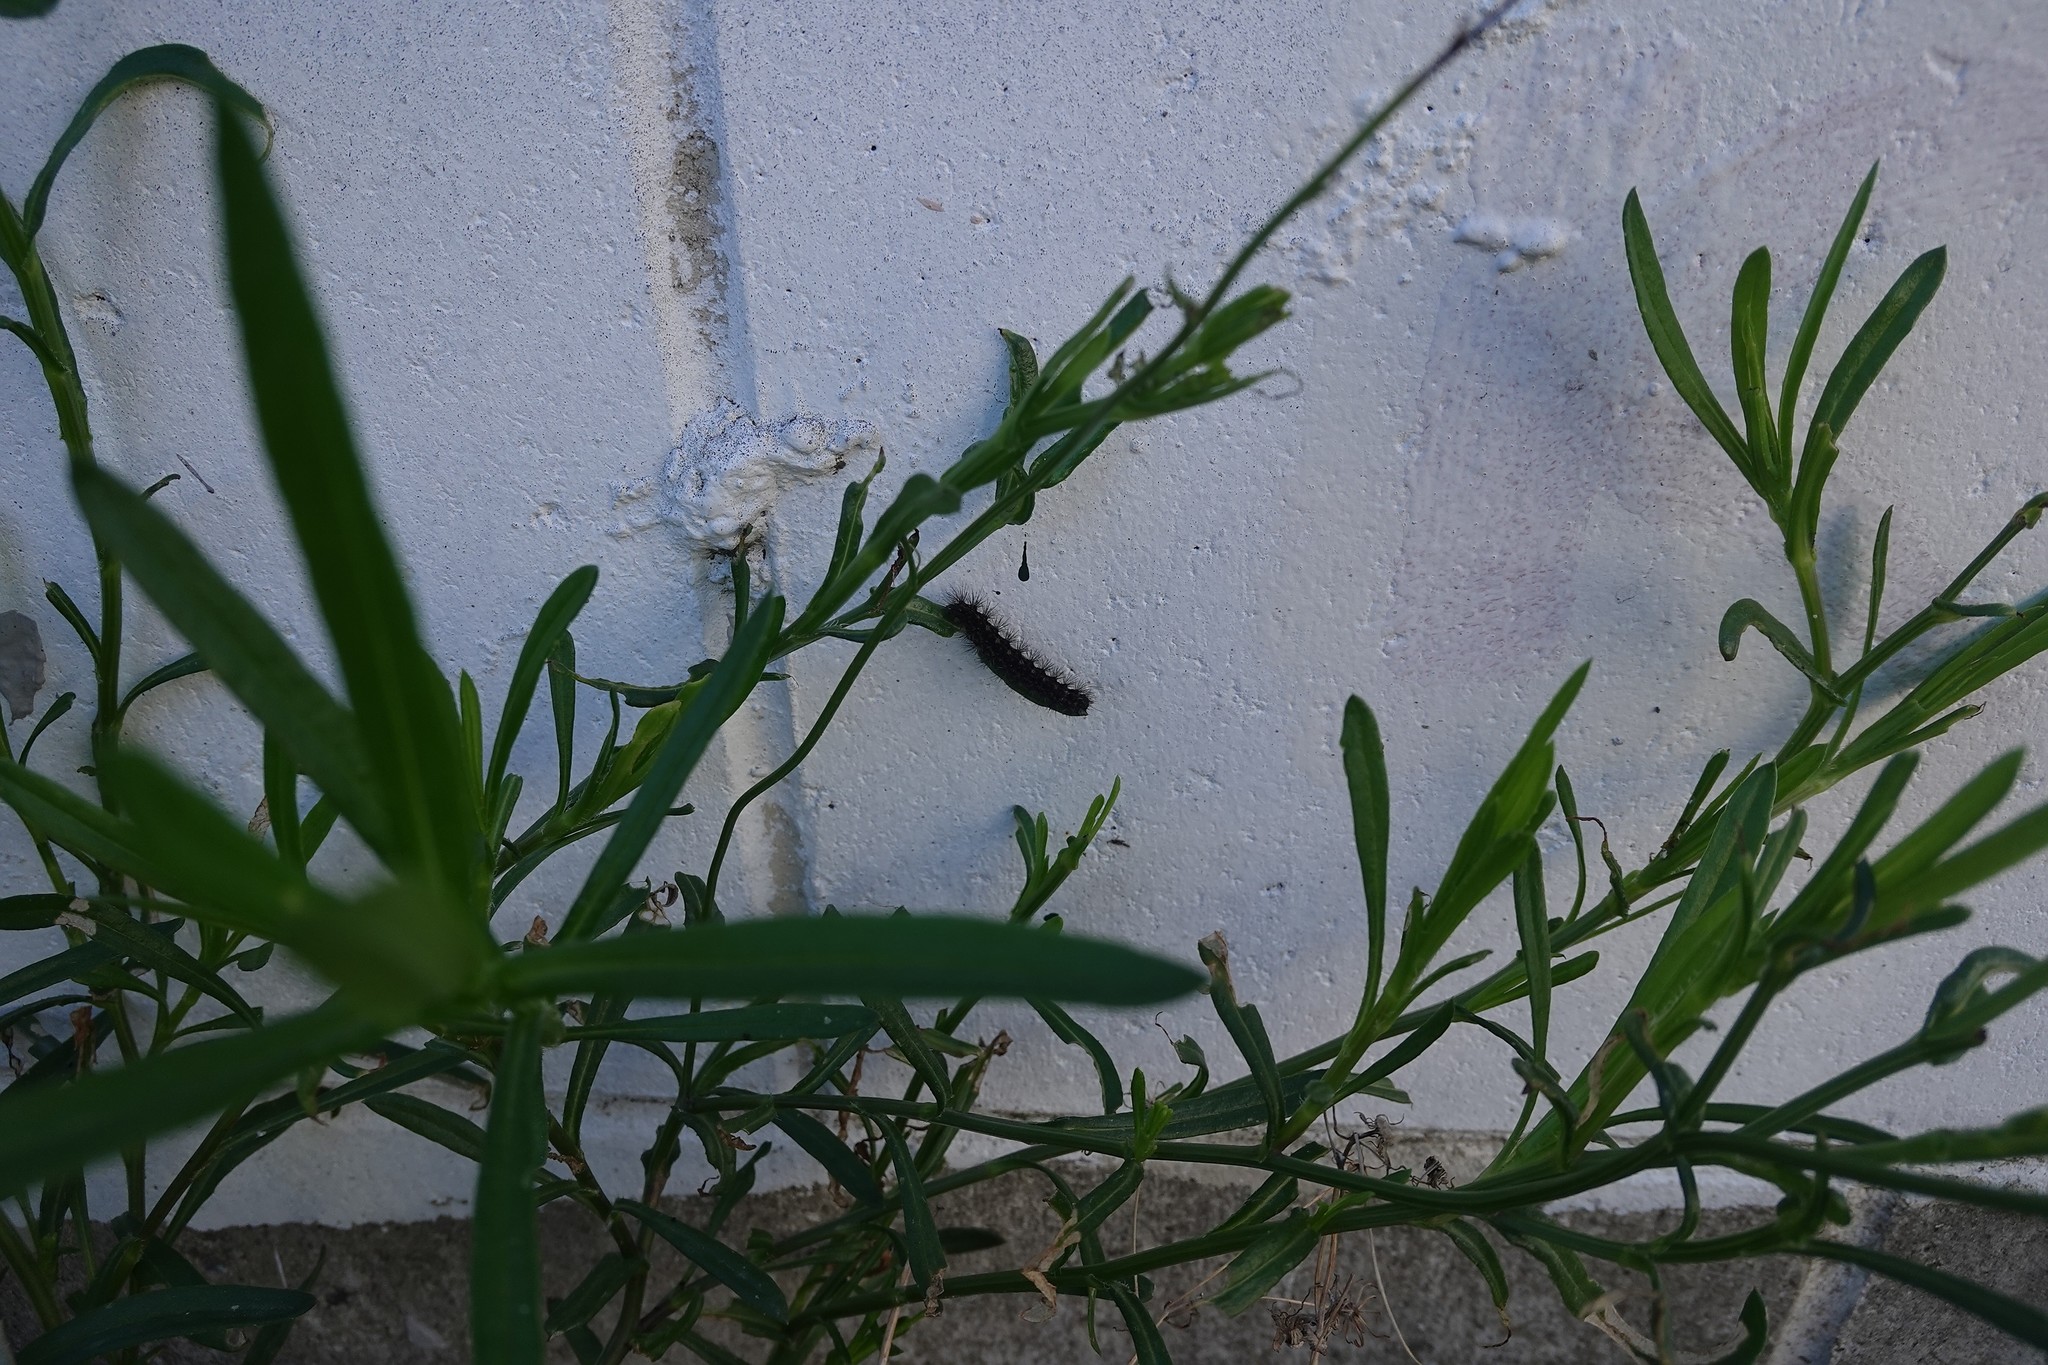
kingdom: Animalia
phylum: Arthropoda
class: Insecta
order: Lepidoptera
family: Erebidae
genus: Nyctemera
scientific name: Nyctemera annulatum
